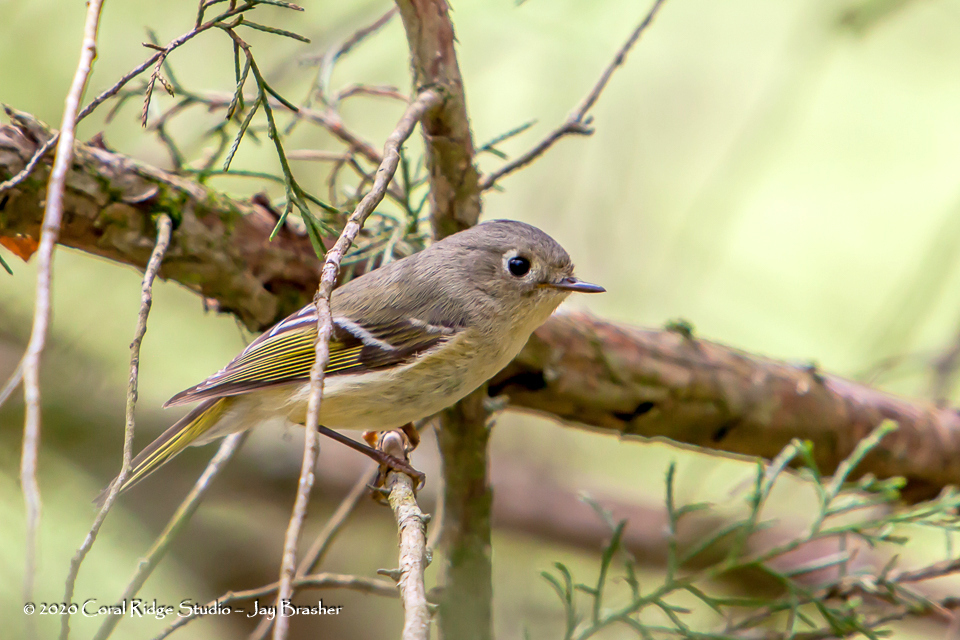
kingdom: Animalia
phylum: Chordata
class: Aves
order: Passeriformes
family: Regulidae
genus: Regulus
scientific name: Regulus calendula
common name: Ruby-crowned kinglet
